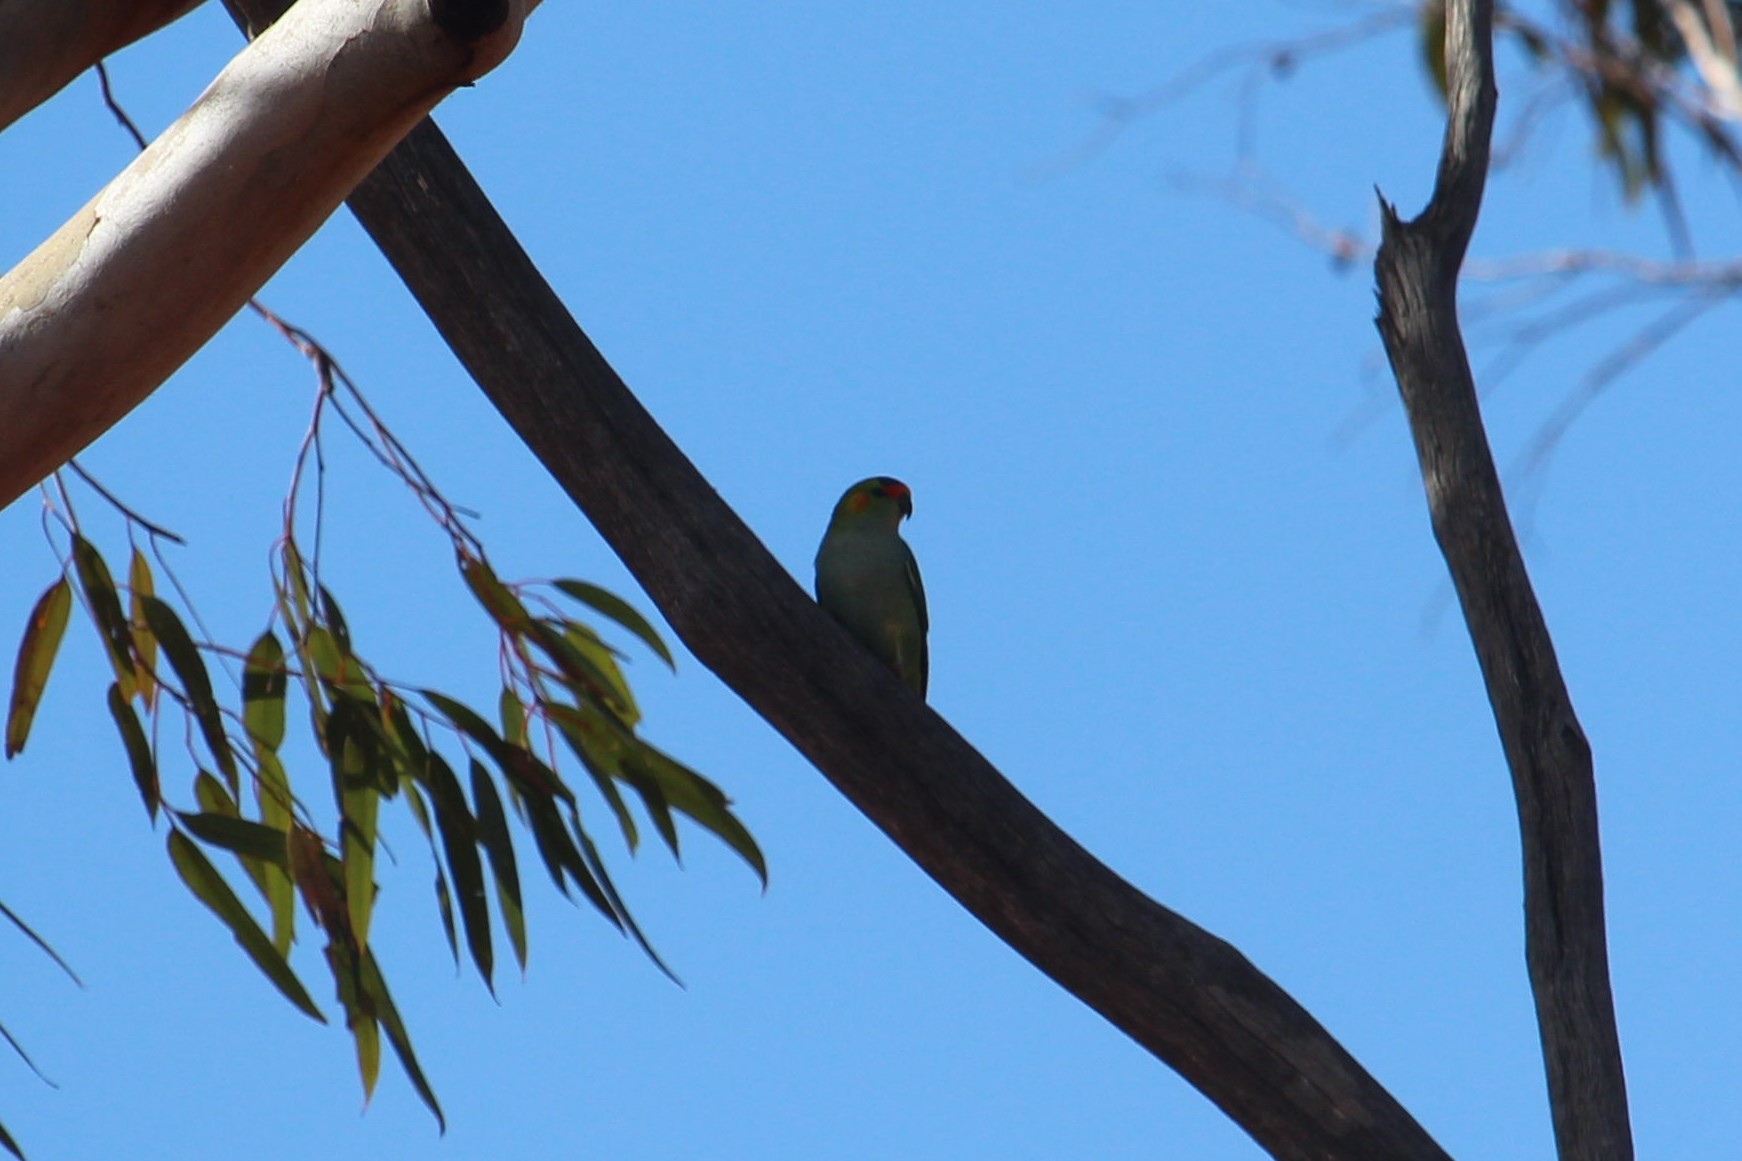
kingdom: Animalia
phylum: Chordata
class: Aves
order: Psittaciformes
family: Psittaculidae
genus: Parvipsitta
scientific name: Parvipsitta porphyrocephala
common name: Purple-crowned lorikeet
